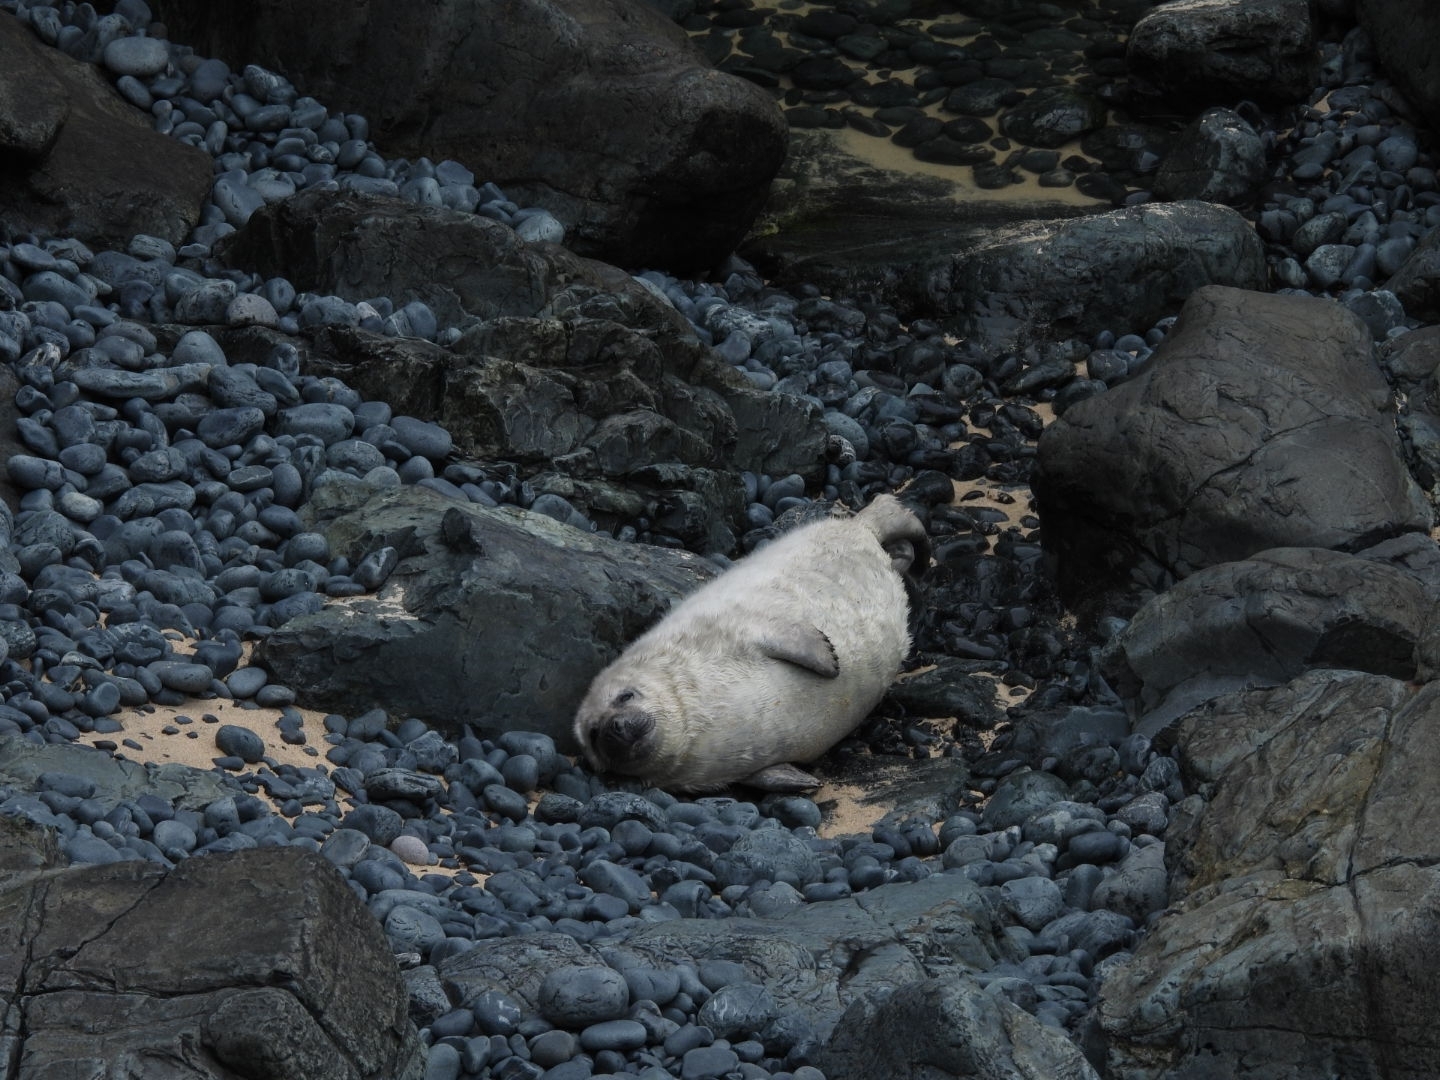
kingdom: Animalia
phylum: Chordata
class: Mammalia
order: Carnivora
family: Phocidae
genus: Halichoerus
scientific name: Halichoerus grypus
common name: Grey seal
